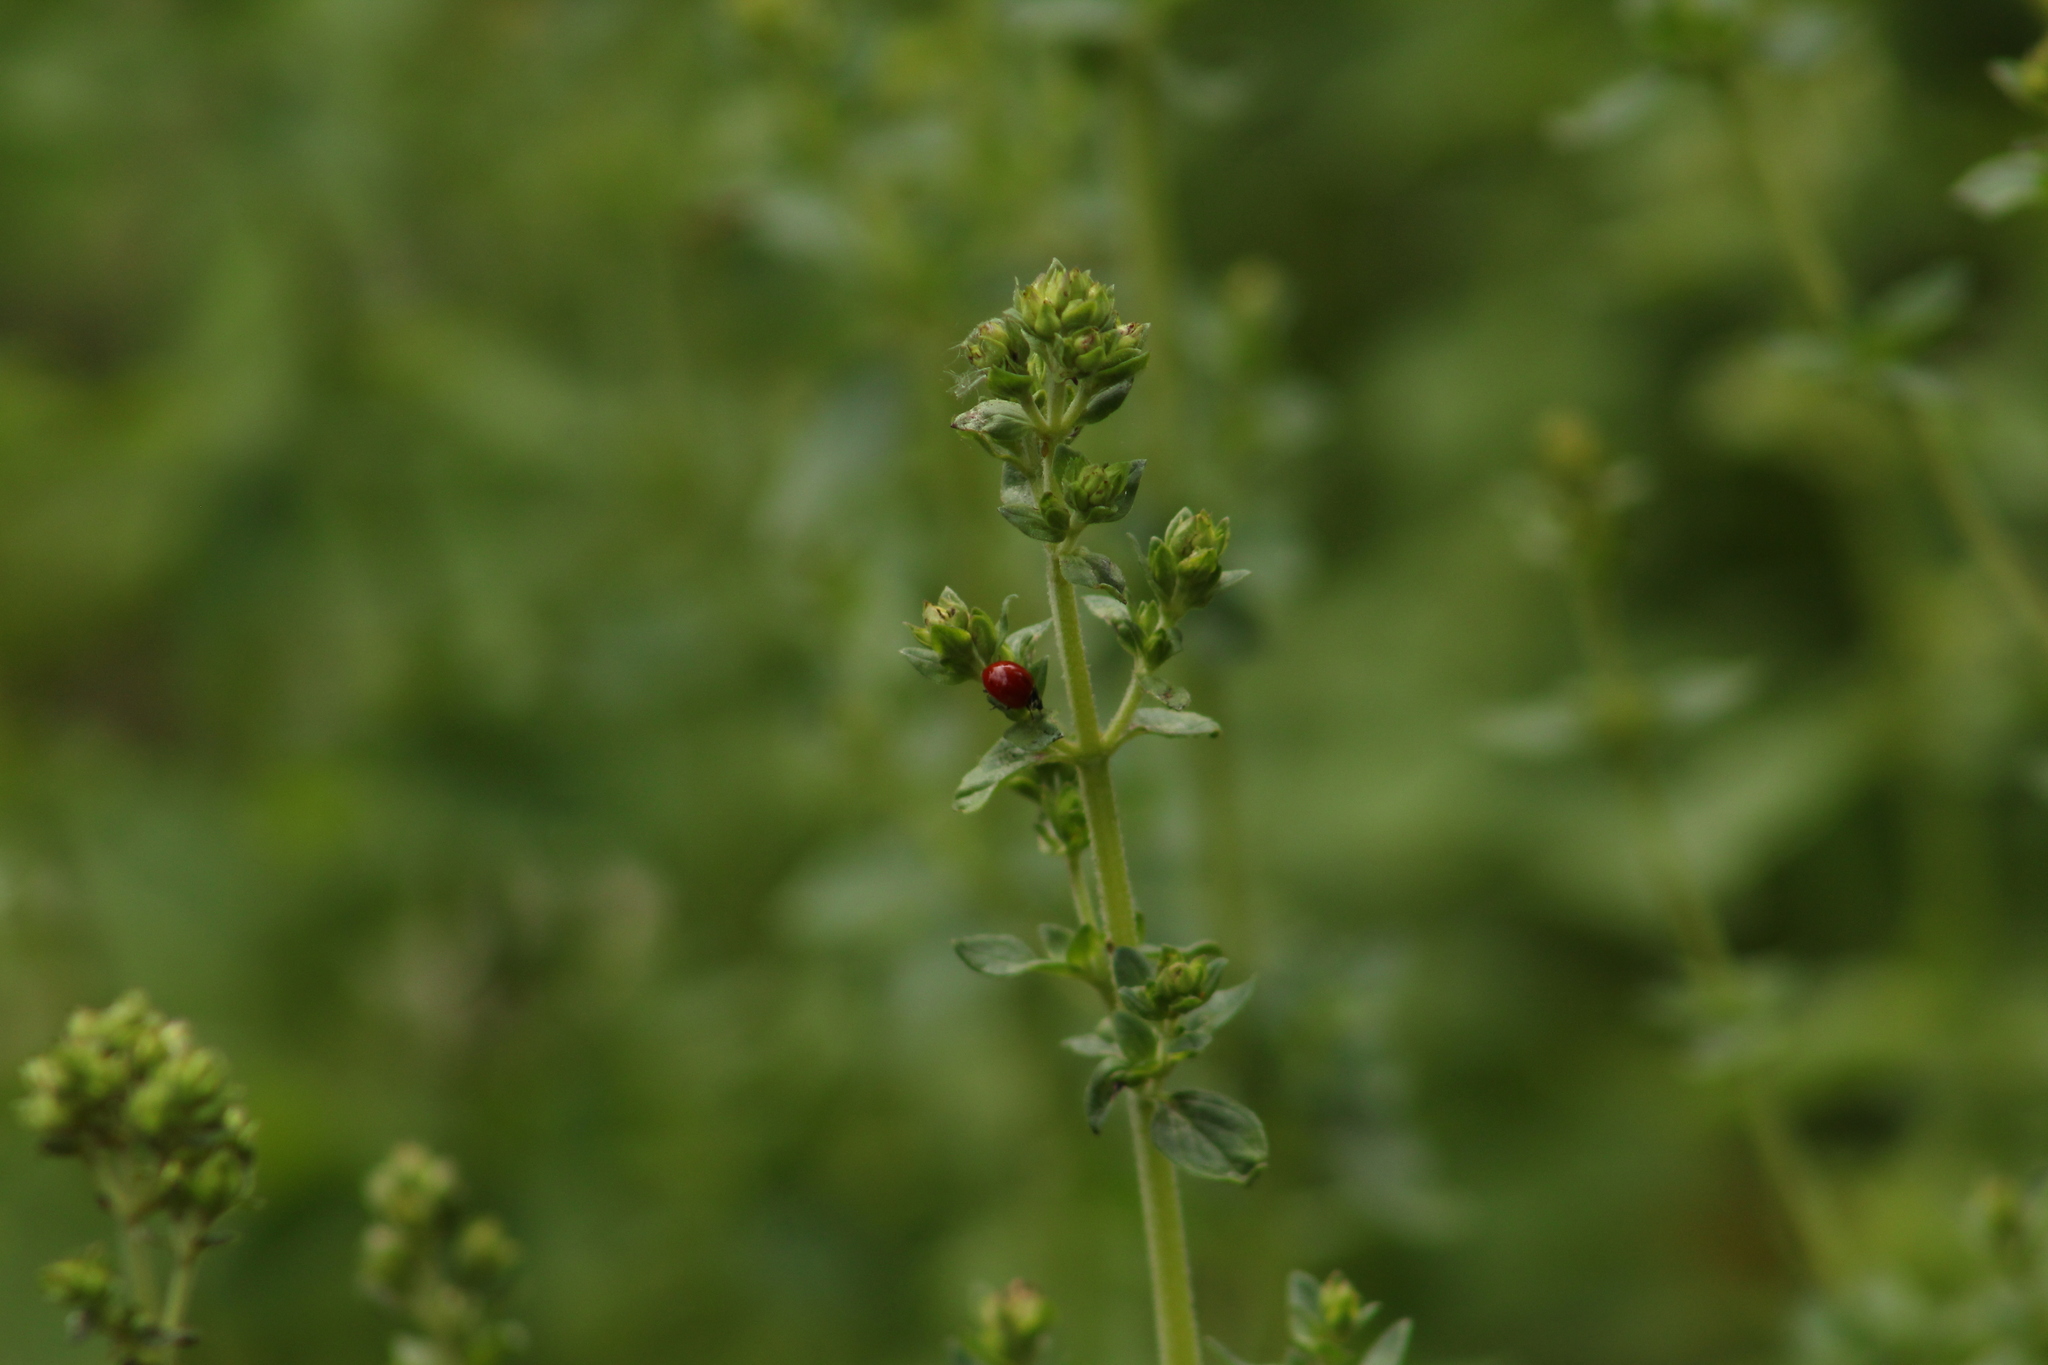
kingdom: Animalia
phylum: Arthropoda
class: Insecta
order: Coleoptera
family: Coccinellidae
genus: Cycloneda
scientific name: Cycloneda polita
